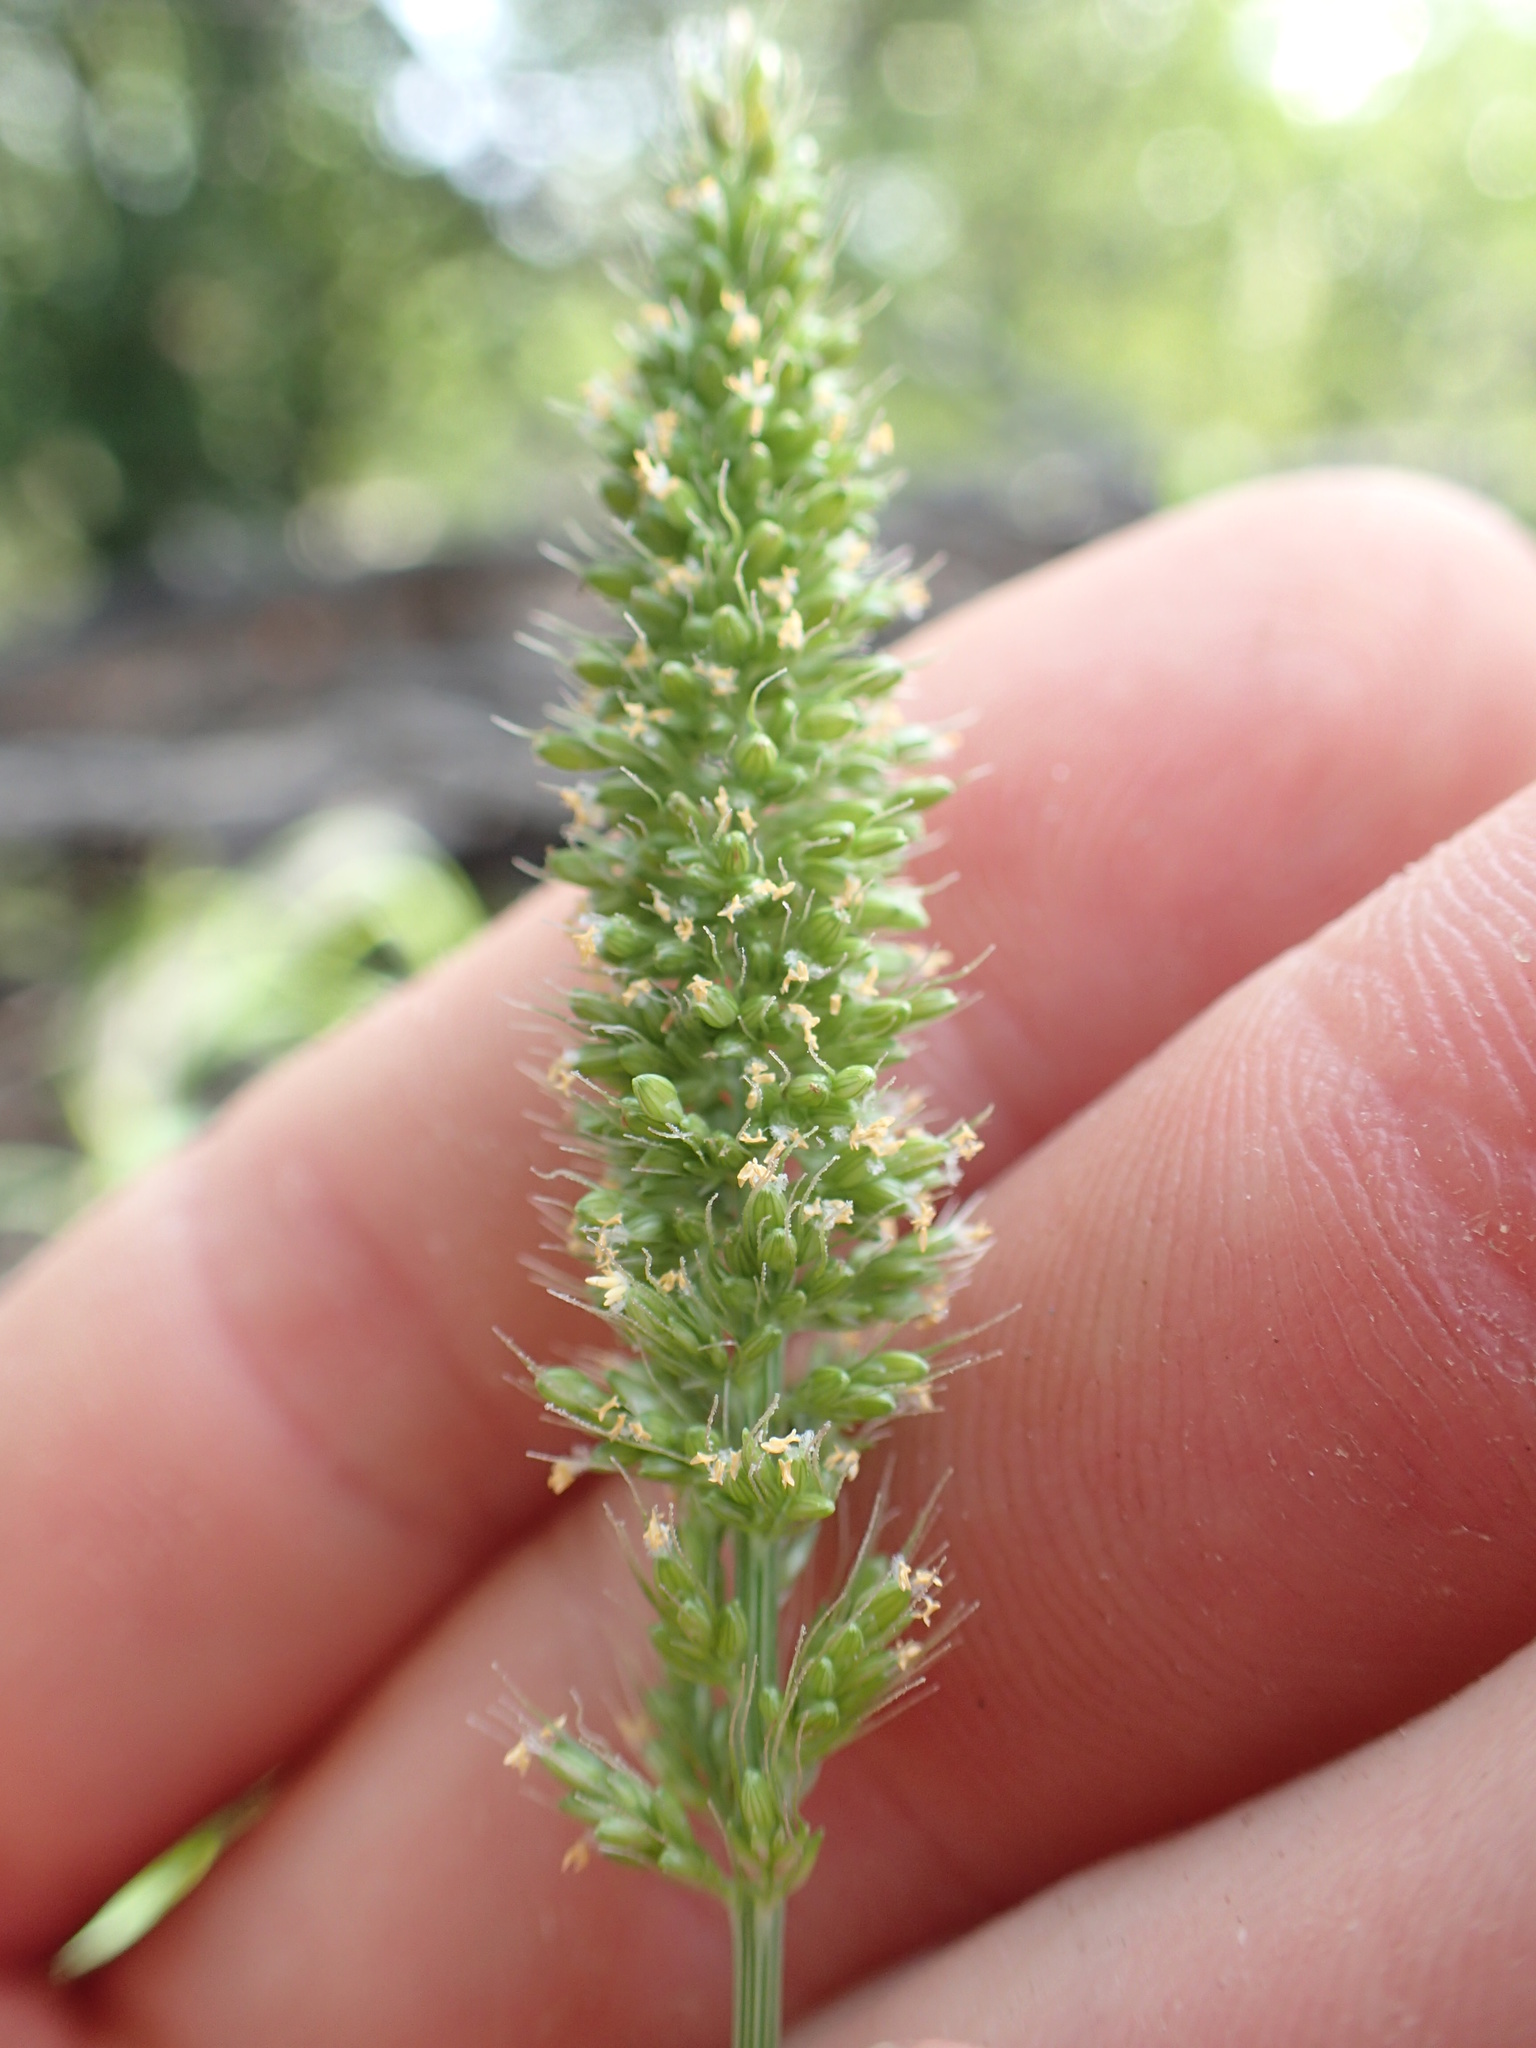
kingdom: Plantae
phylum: Tracheophyta
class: Liliopsida
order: Poales
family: Poaceae
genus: Setaria
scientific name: Setaria adhaerens
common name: Adherent bristle-grass
